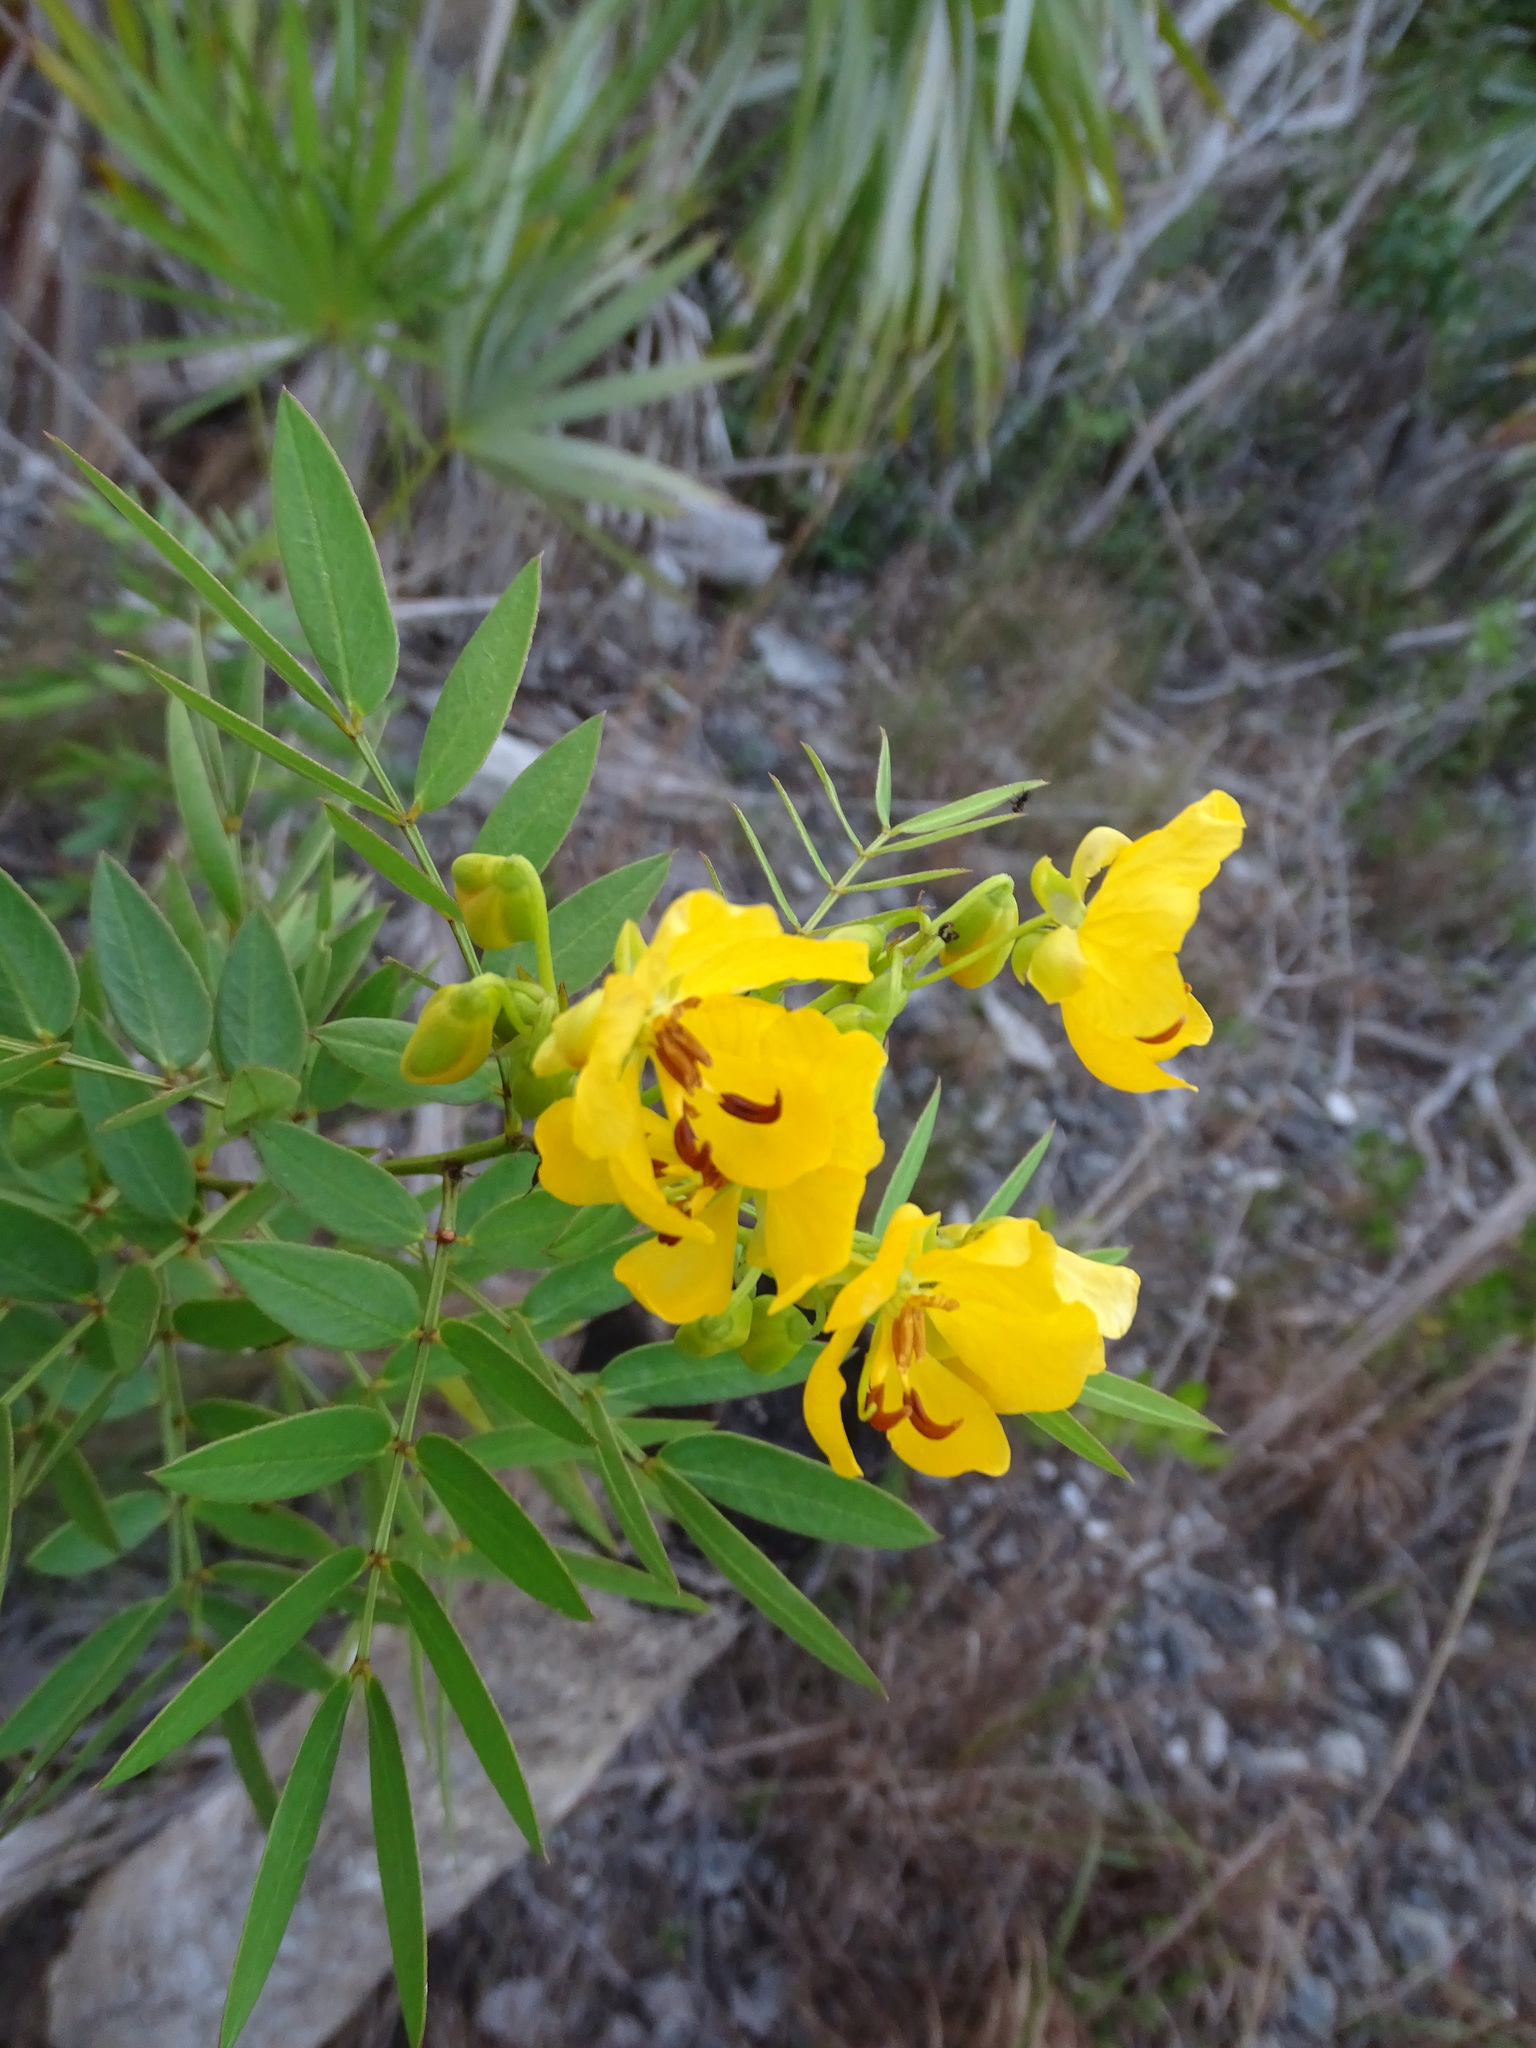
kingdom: Plantae
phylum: Tracheophyta
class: Magnoliopsida
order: Fabales
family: Fabaceae
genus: Senna
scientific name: Senna chapmanii
